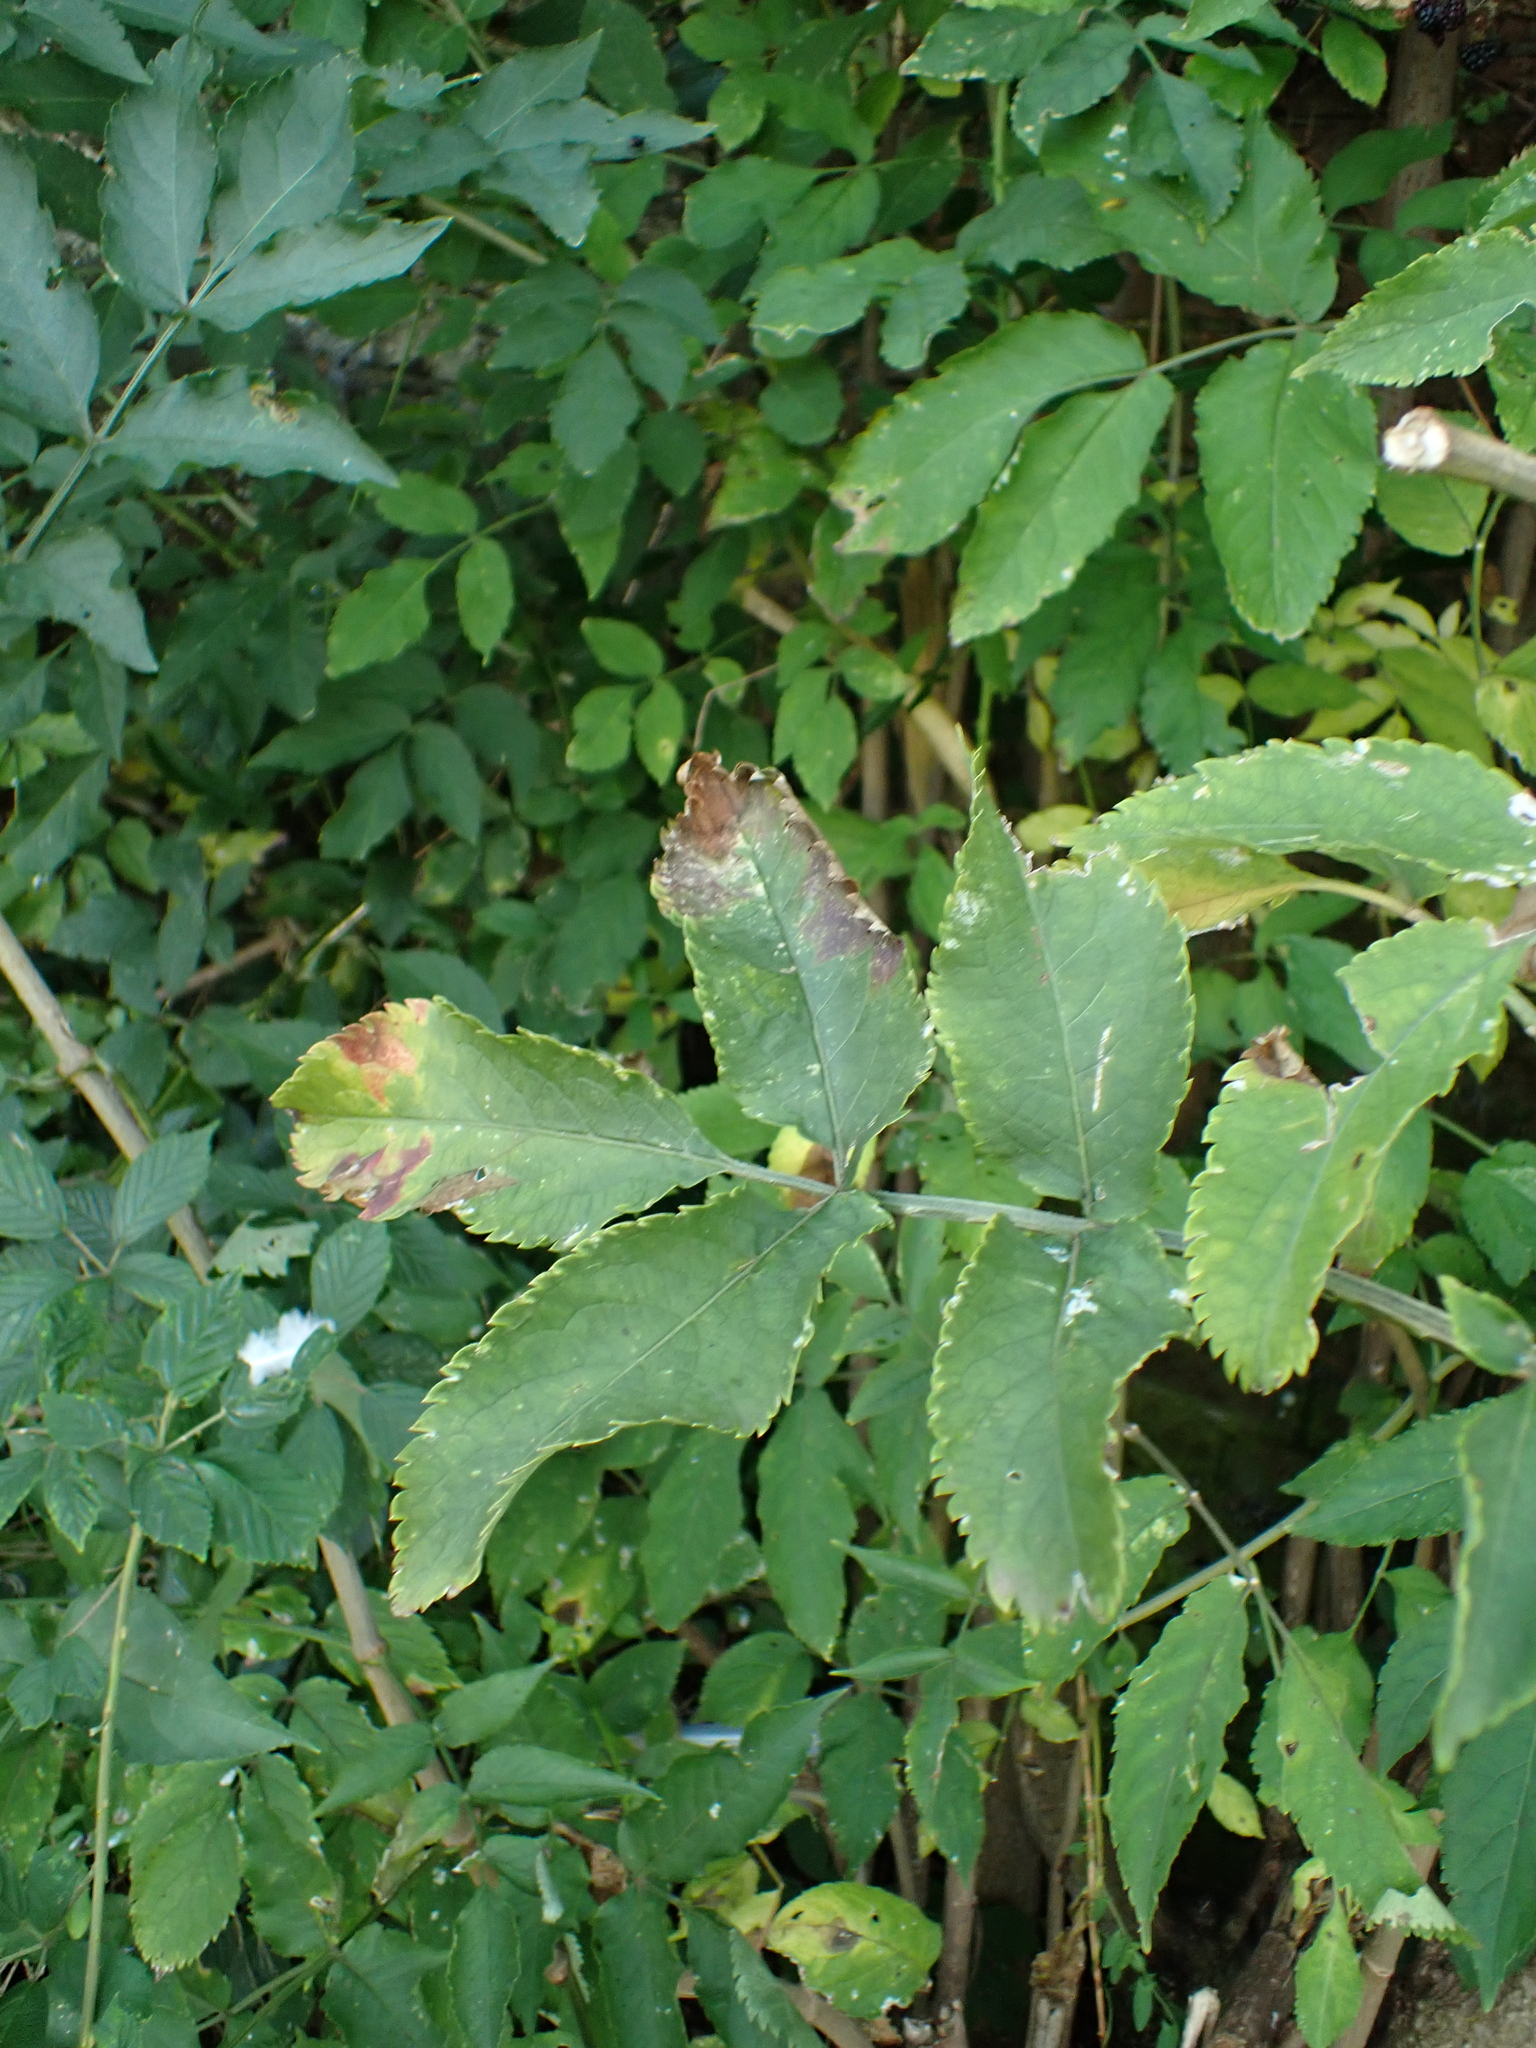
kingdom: Plantae
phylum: Tracheophyta
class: Magnoliopsida
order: Dipsacales
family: Viburnaceae
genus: Sambucus
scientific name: Sambucus nigra
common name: Elder
